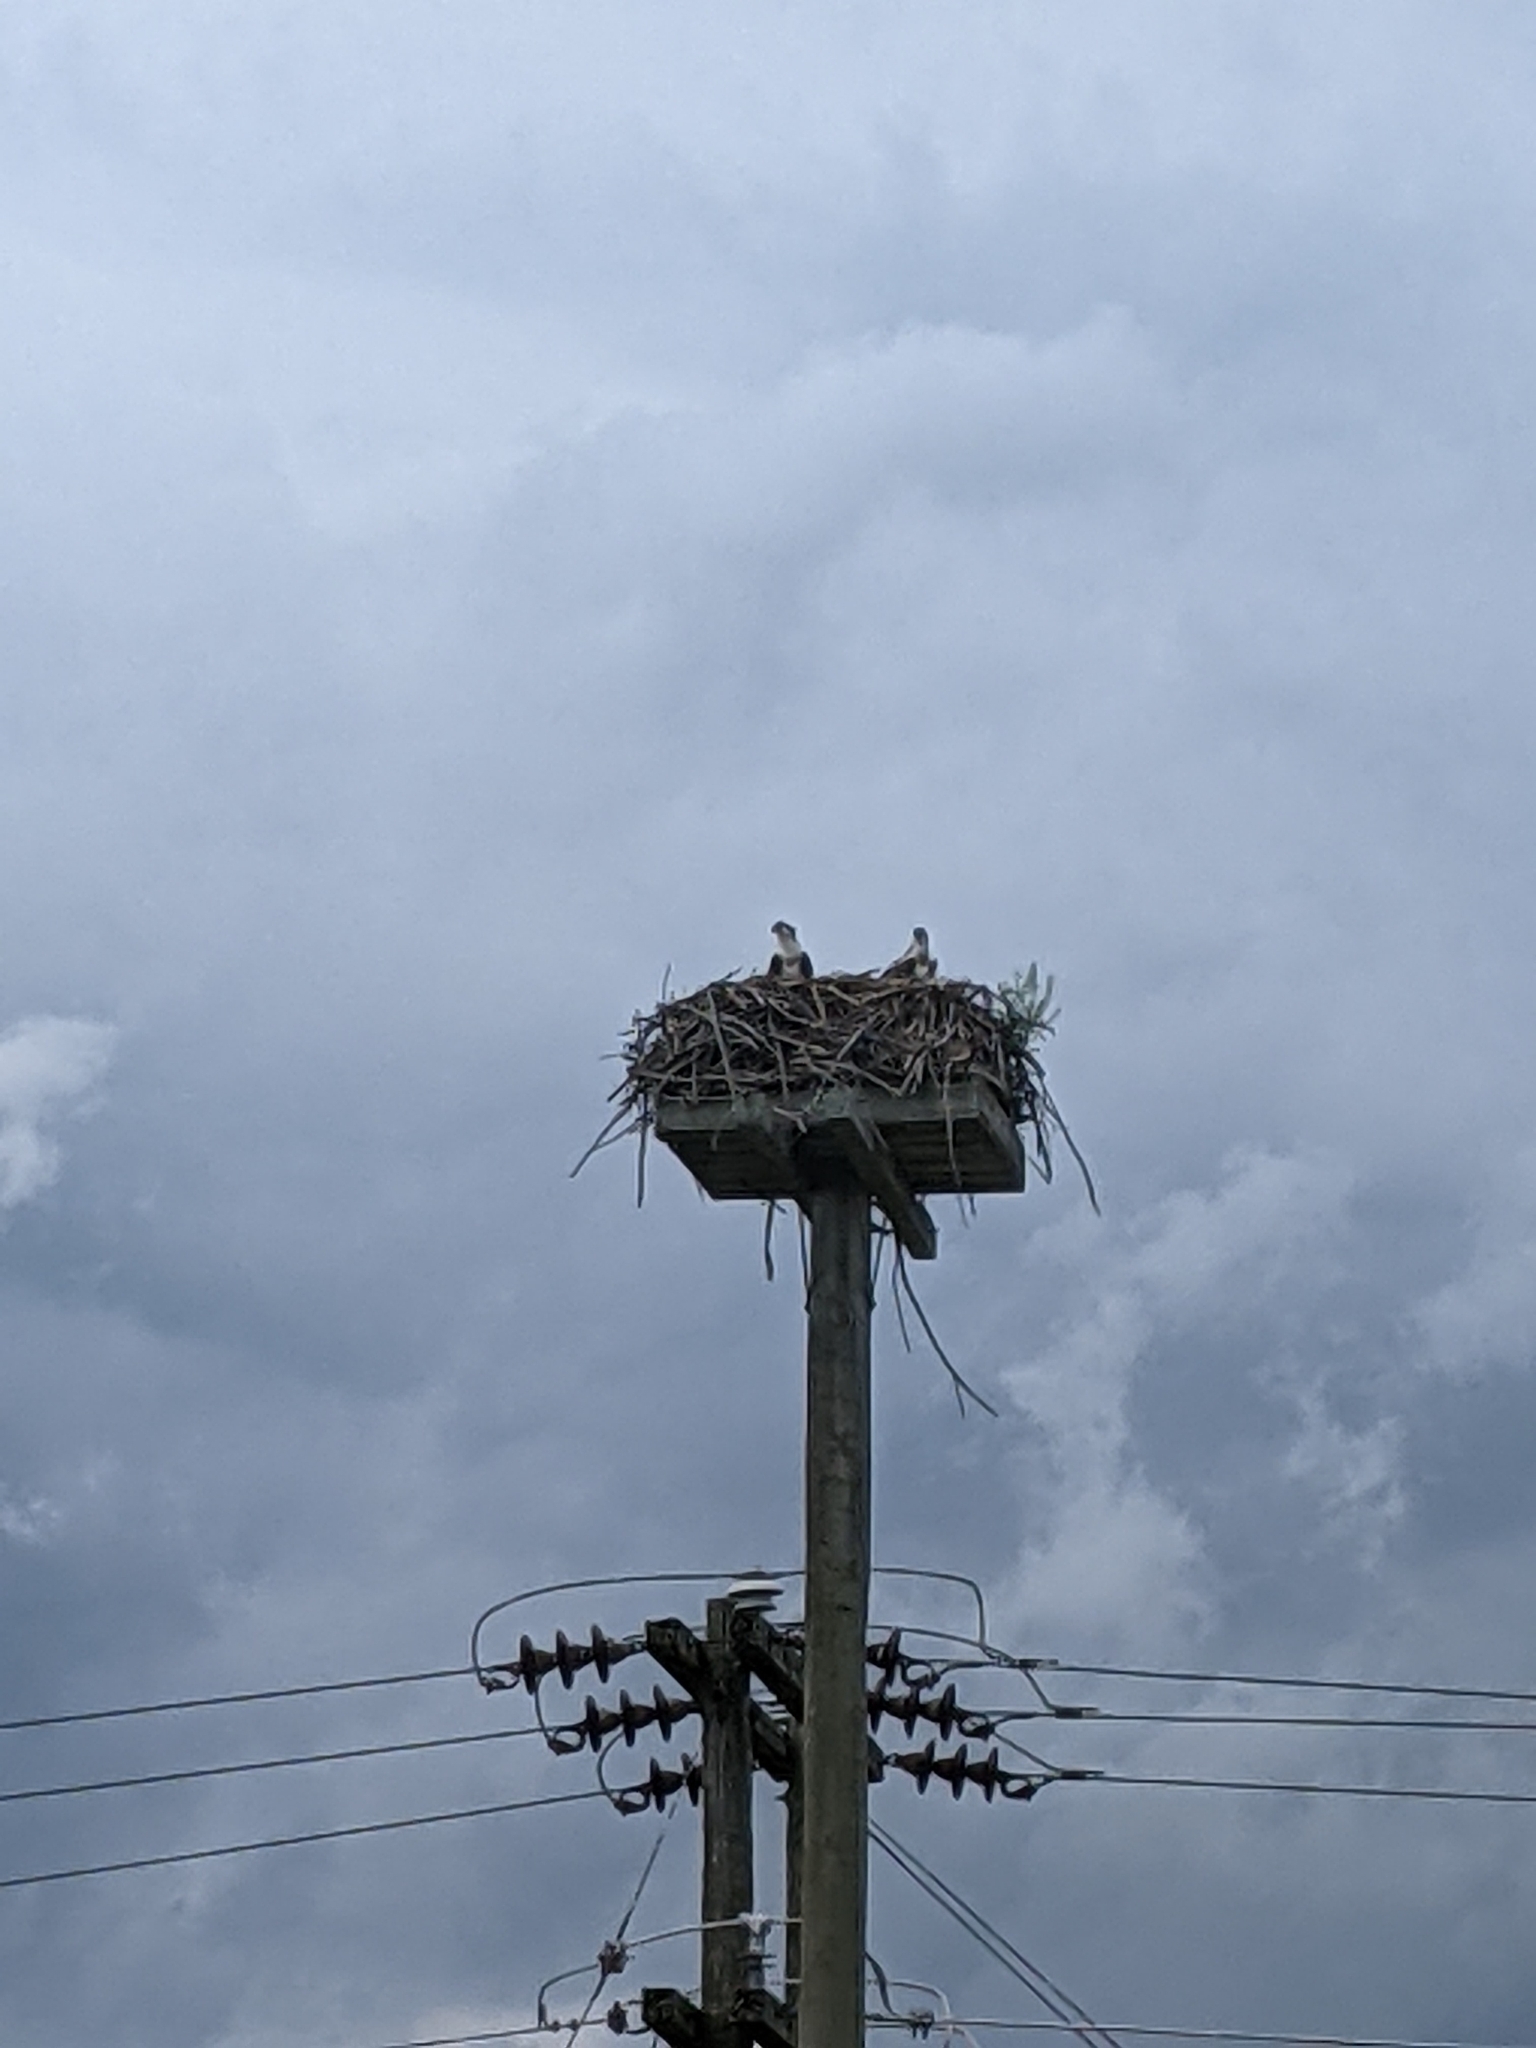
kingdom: Animalia
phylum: Chordata
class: Aves
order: Accipitriformes
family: Pandionidae
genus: Pandion
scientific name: Pandion haliaetus
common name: Osprey
